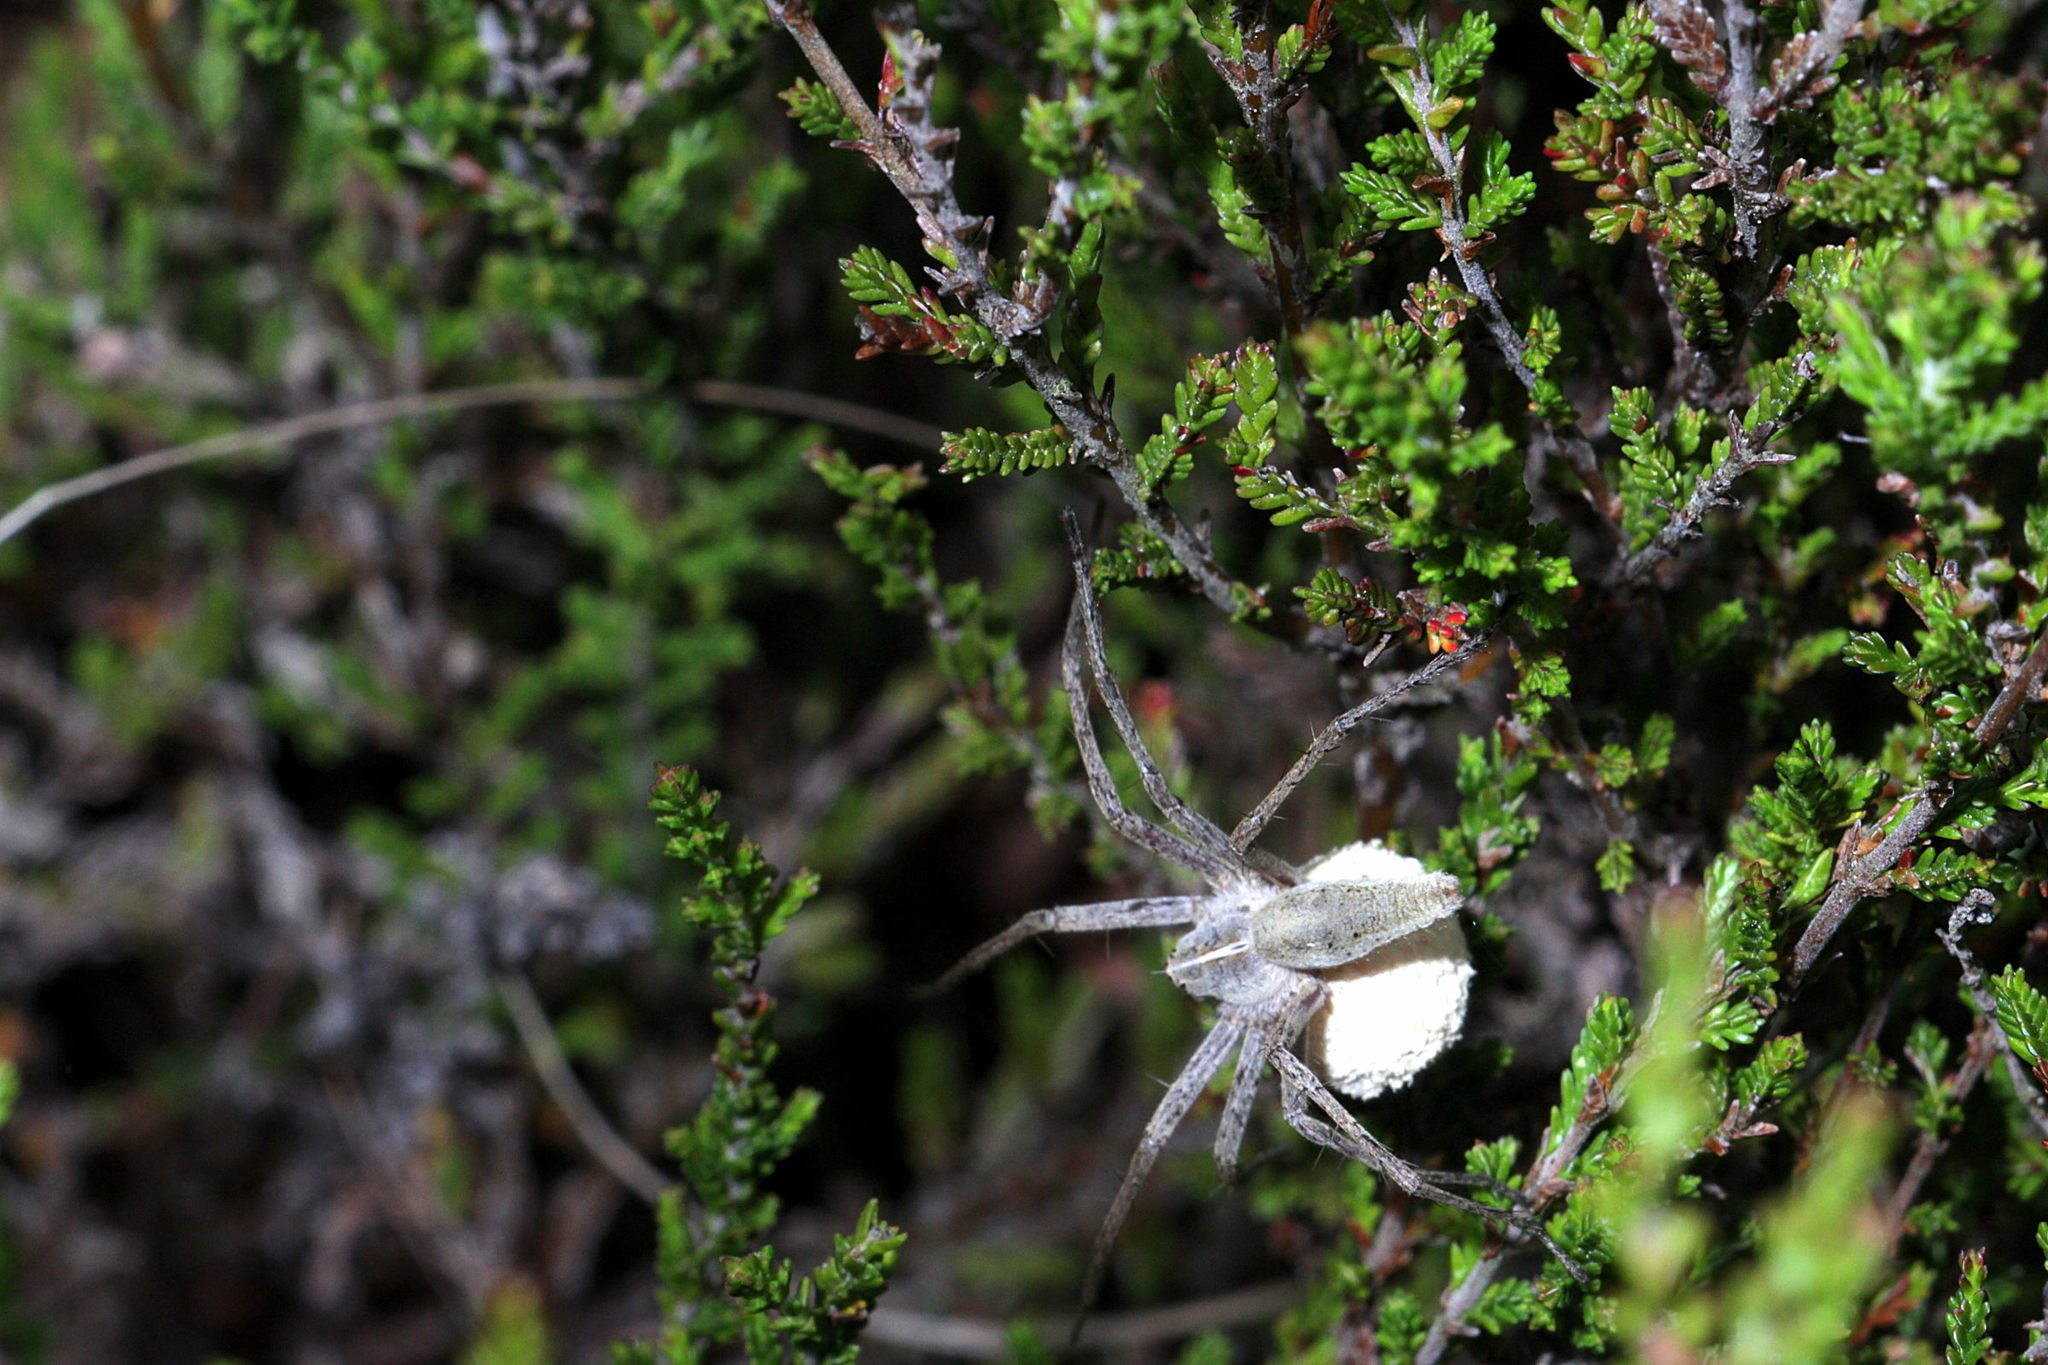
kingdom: Animalia
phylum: Arthropoda
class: Arachnida
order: Araneae
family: Pisauridae
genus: Pisaura
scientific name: Pisaura mirabilis
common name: Tent spider
